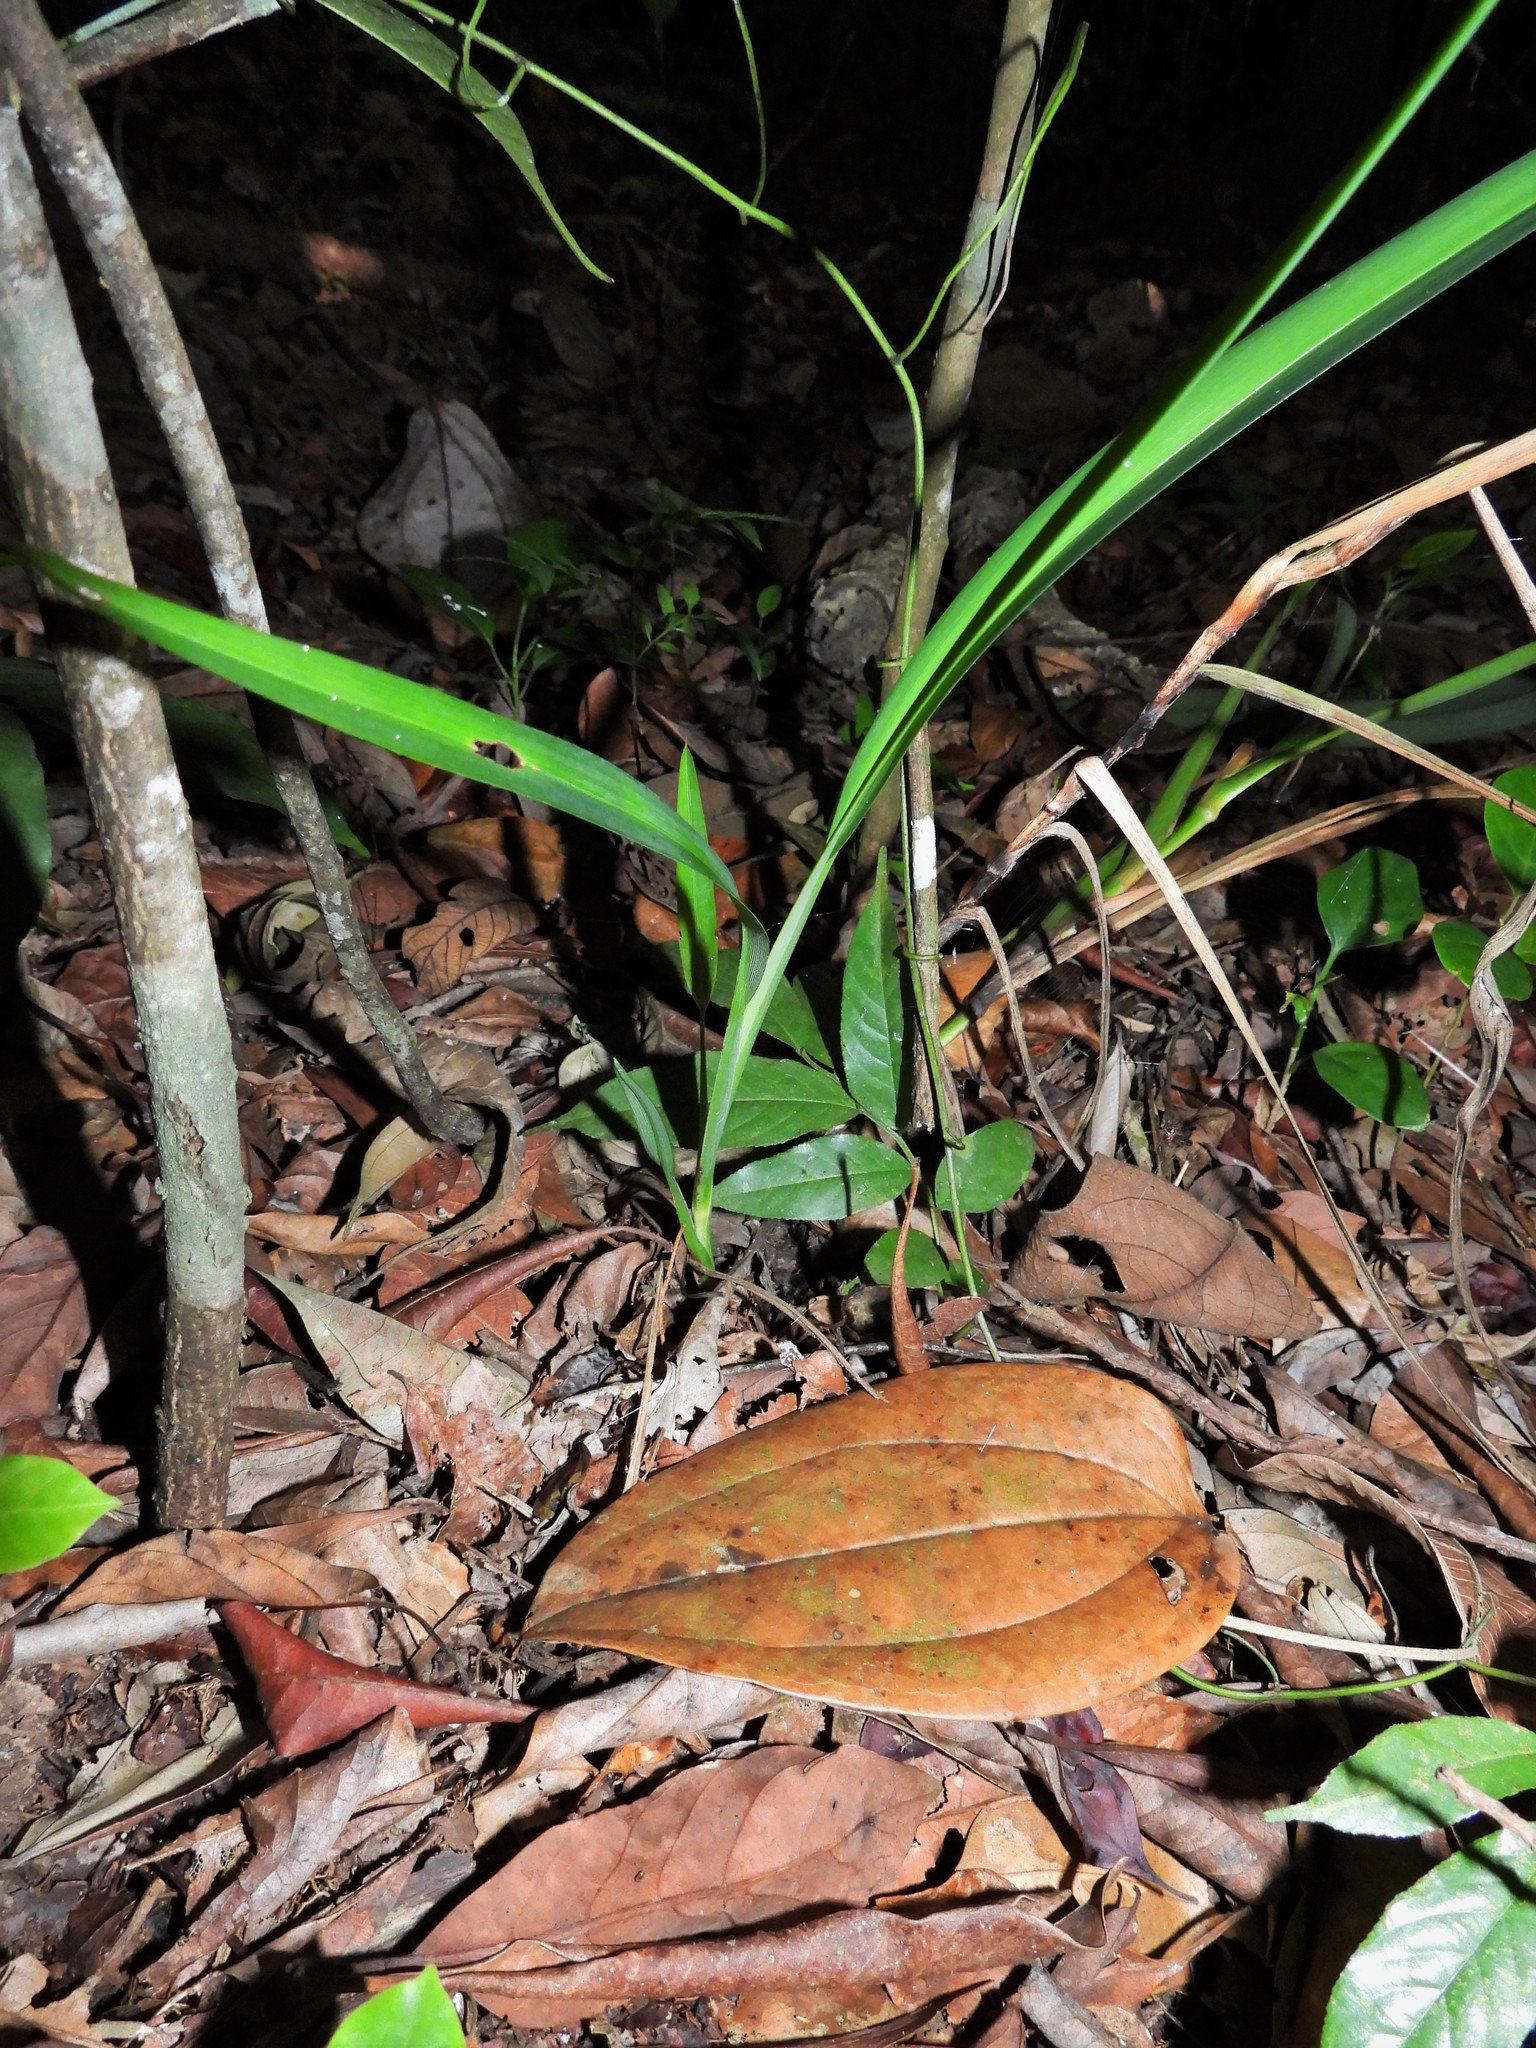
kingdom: Plantae
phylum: Tracheophyta
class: Liliopsida
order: Asparagales
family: Asphodelaceae
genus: Dianella
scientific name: Dianella ensifolia
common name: New zealand lilyplant
